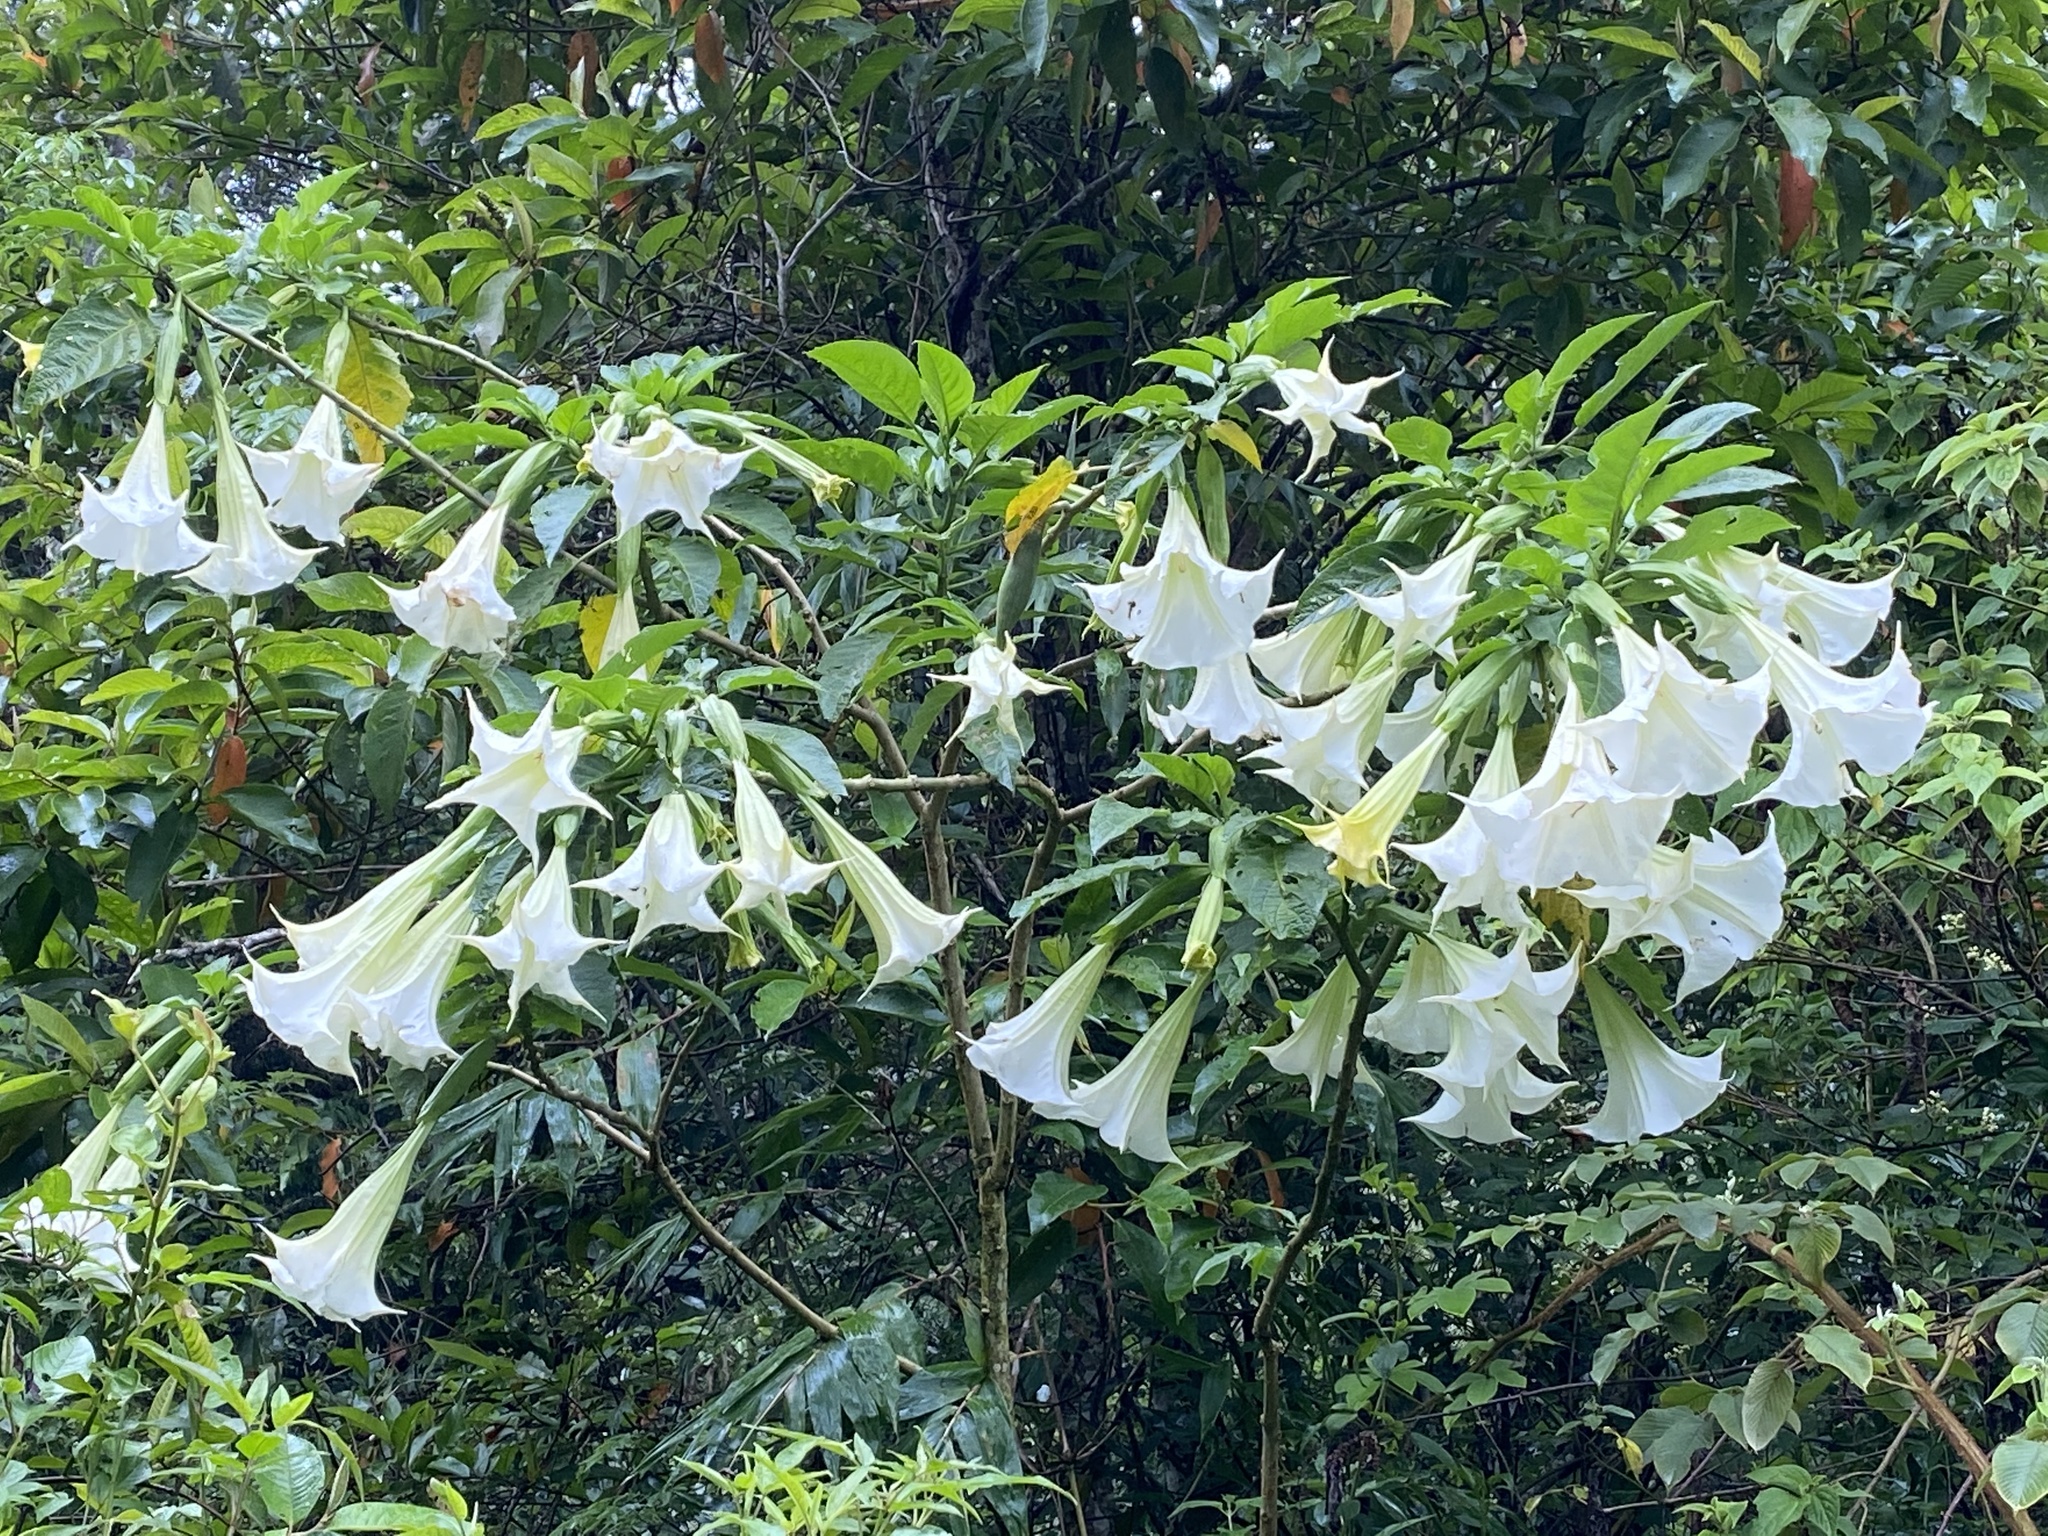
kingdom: Plantae
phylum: Tracheophyta
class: Magnoliopsida
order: Solanales
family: Solanaceae
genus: Brugmansia
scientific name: Brugmansia suaveolens
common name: Angel's tears
